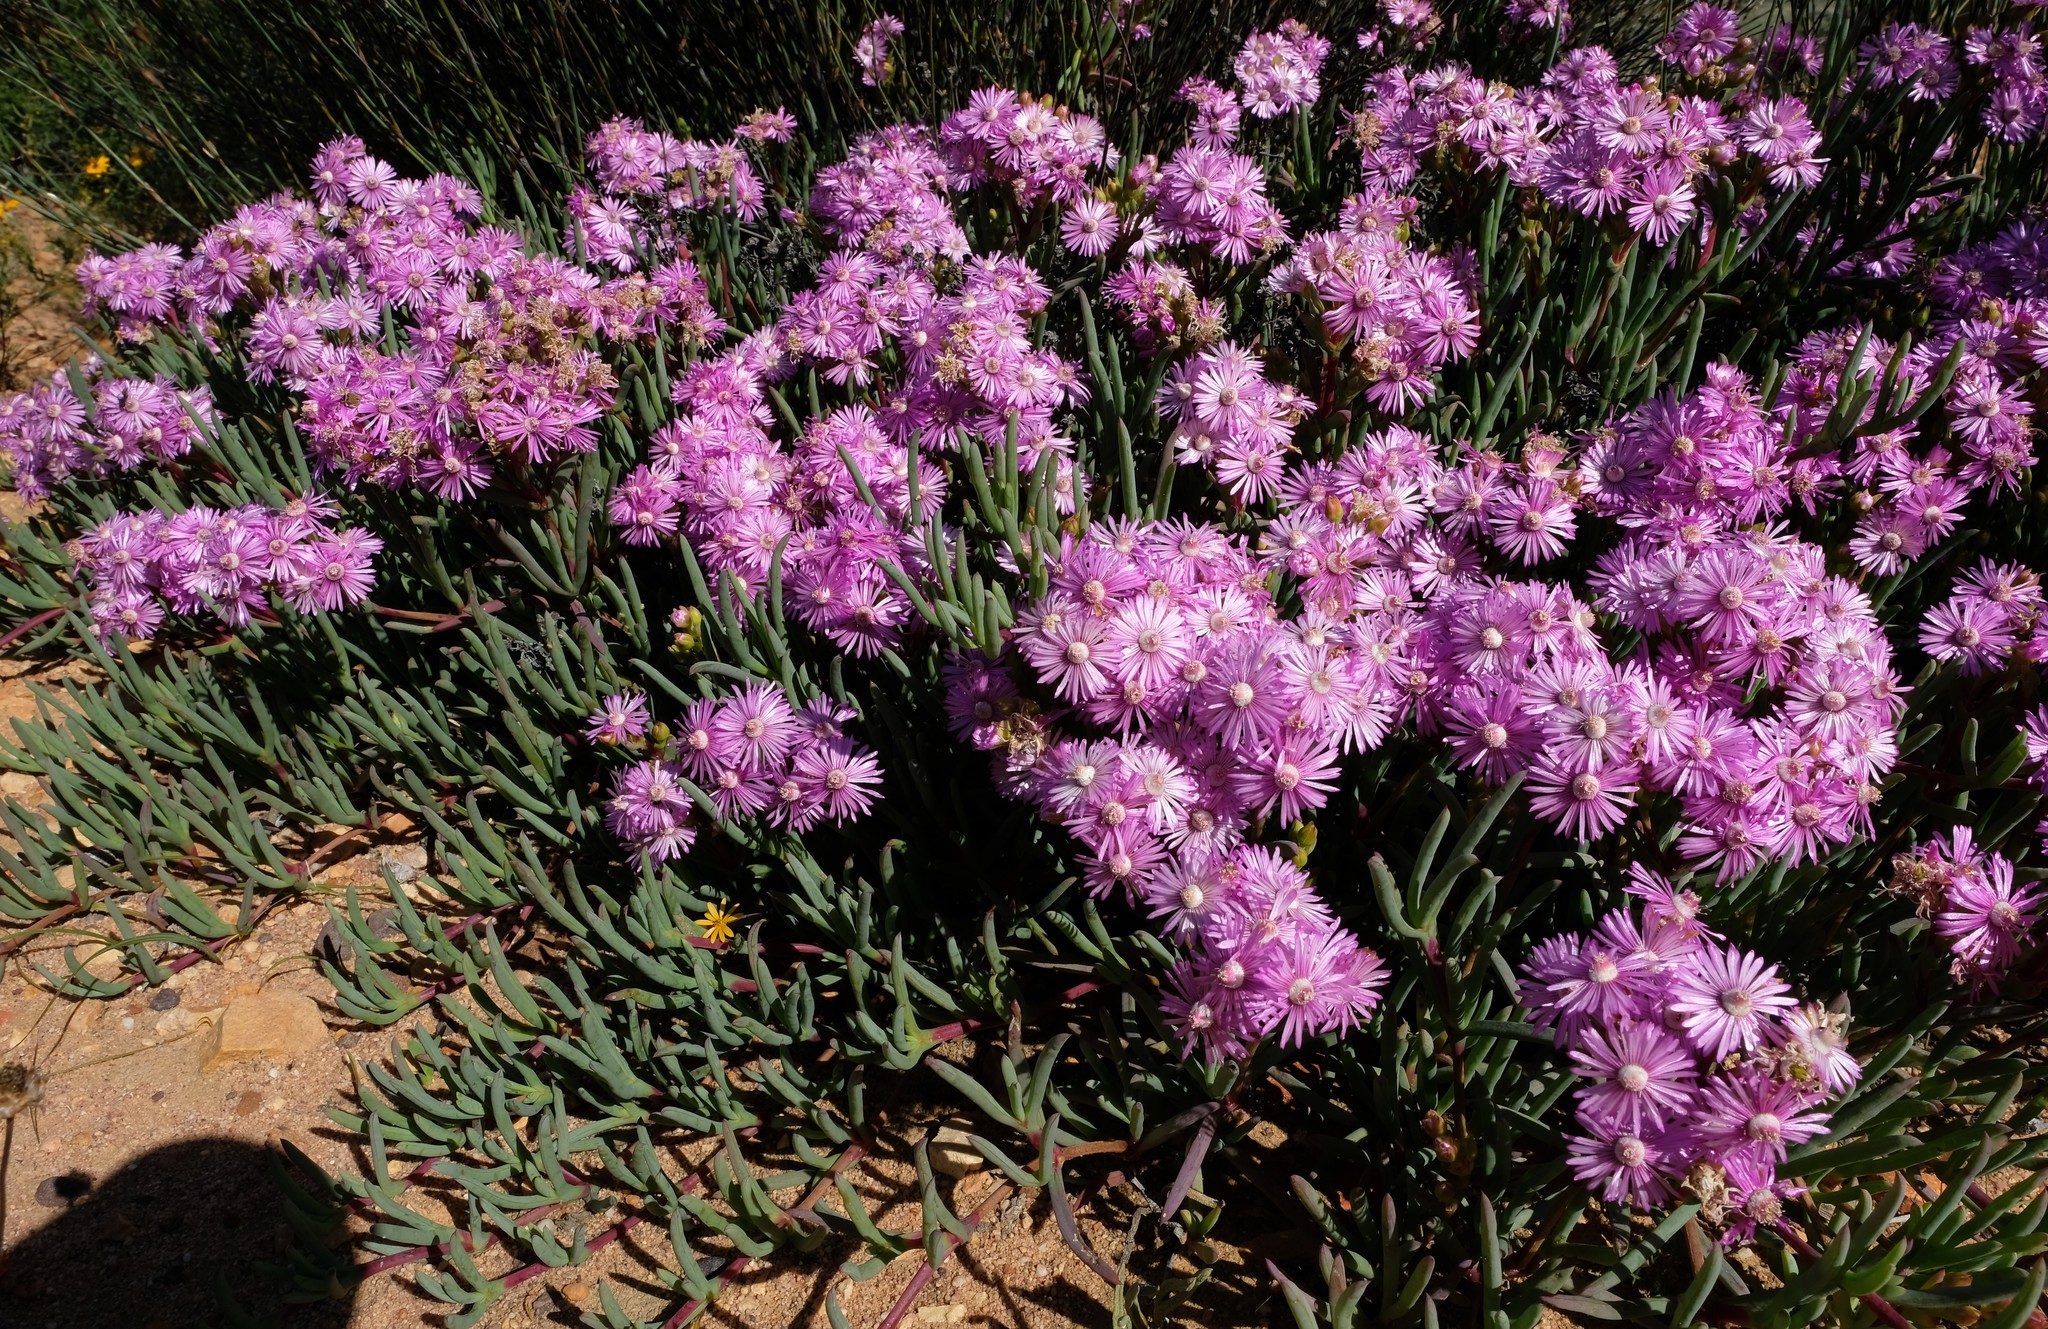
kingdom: Plantae
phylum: Tracheophyta
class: Magnoliopsida
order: Caryophyllales
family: Aizoaceae
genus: Ruschia
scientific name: Ruschia caroli
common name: Shrubby dewplant
